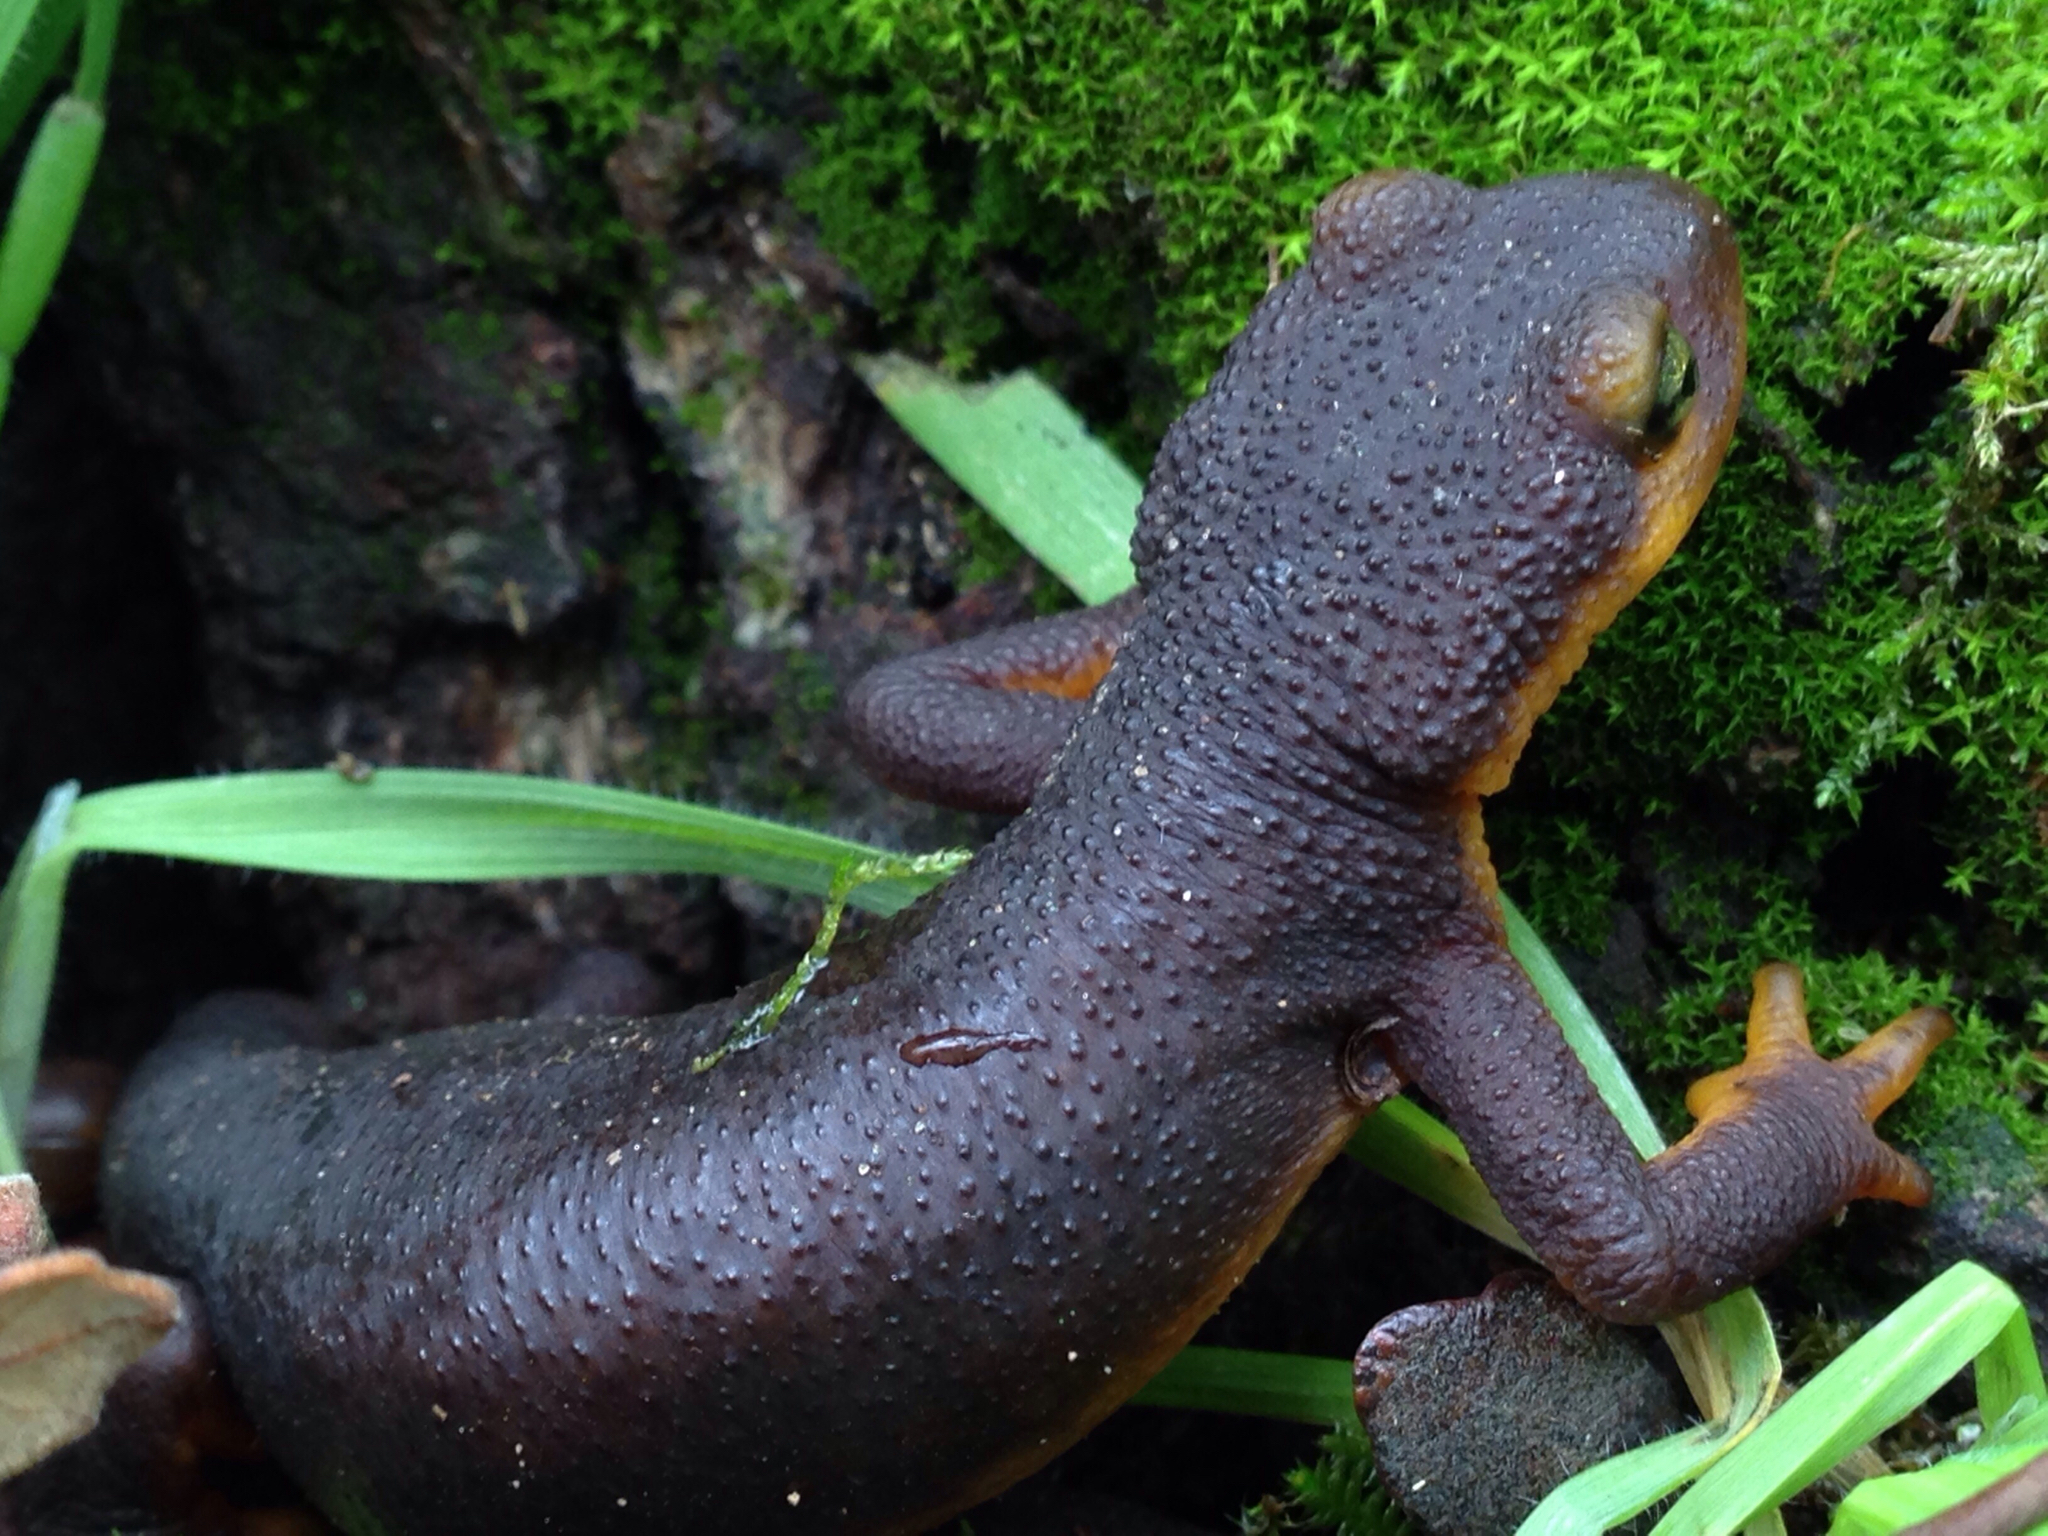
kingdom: Animalia
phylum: Chordata
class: Amphibia
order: Caudata
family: Salamandridae
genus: Taricha
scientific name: Taricha torosa
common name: California newt
